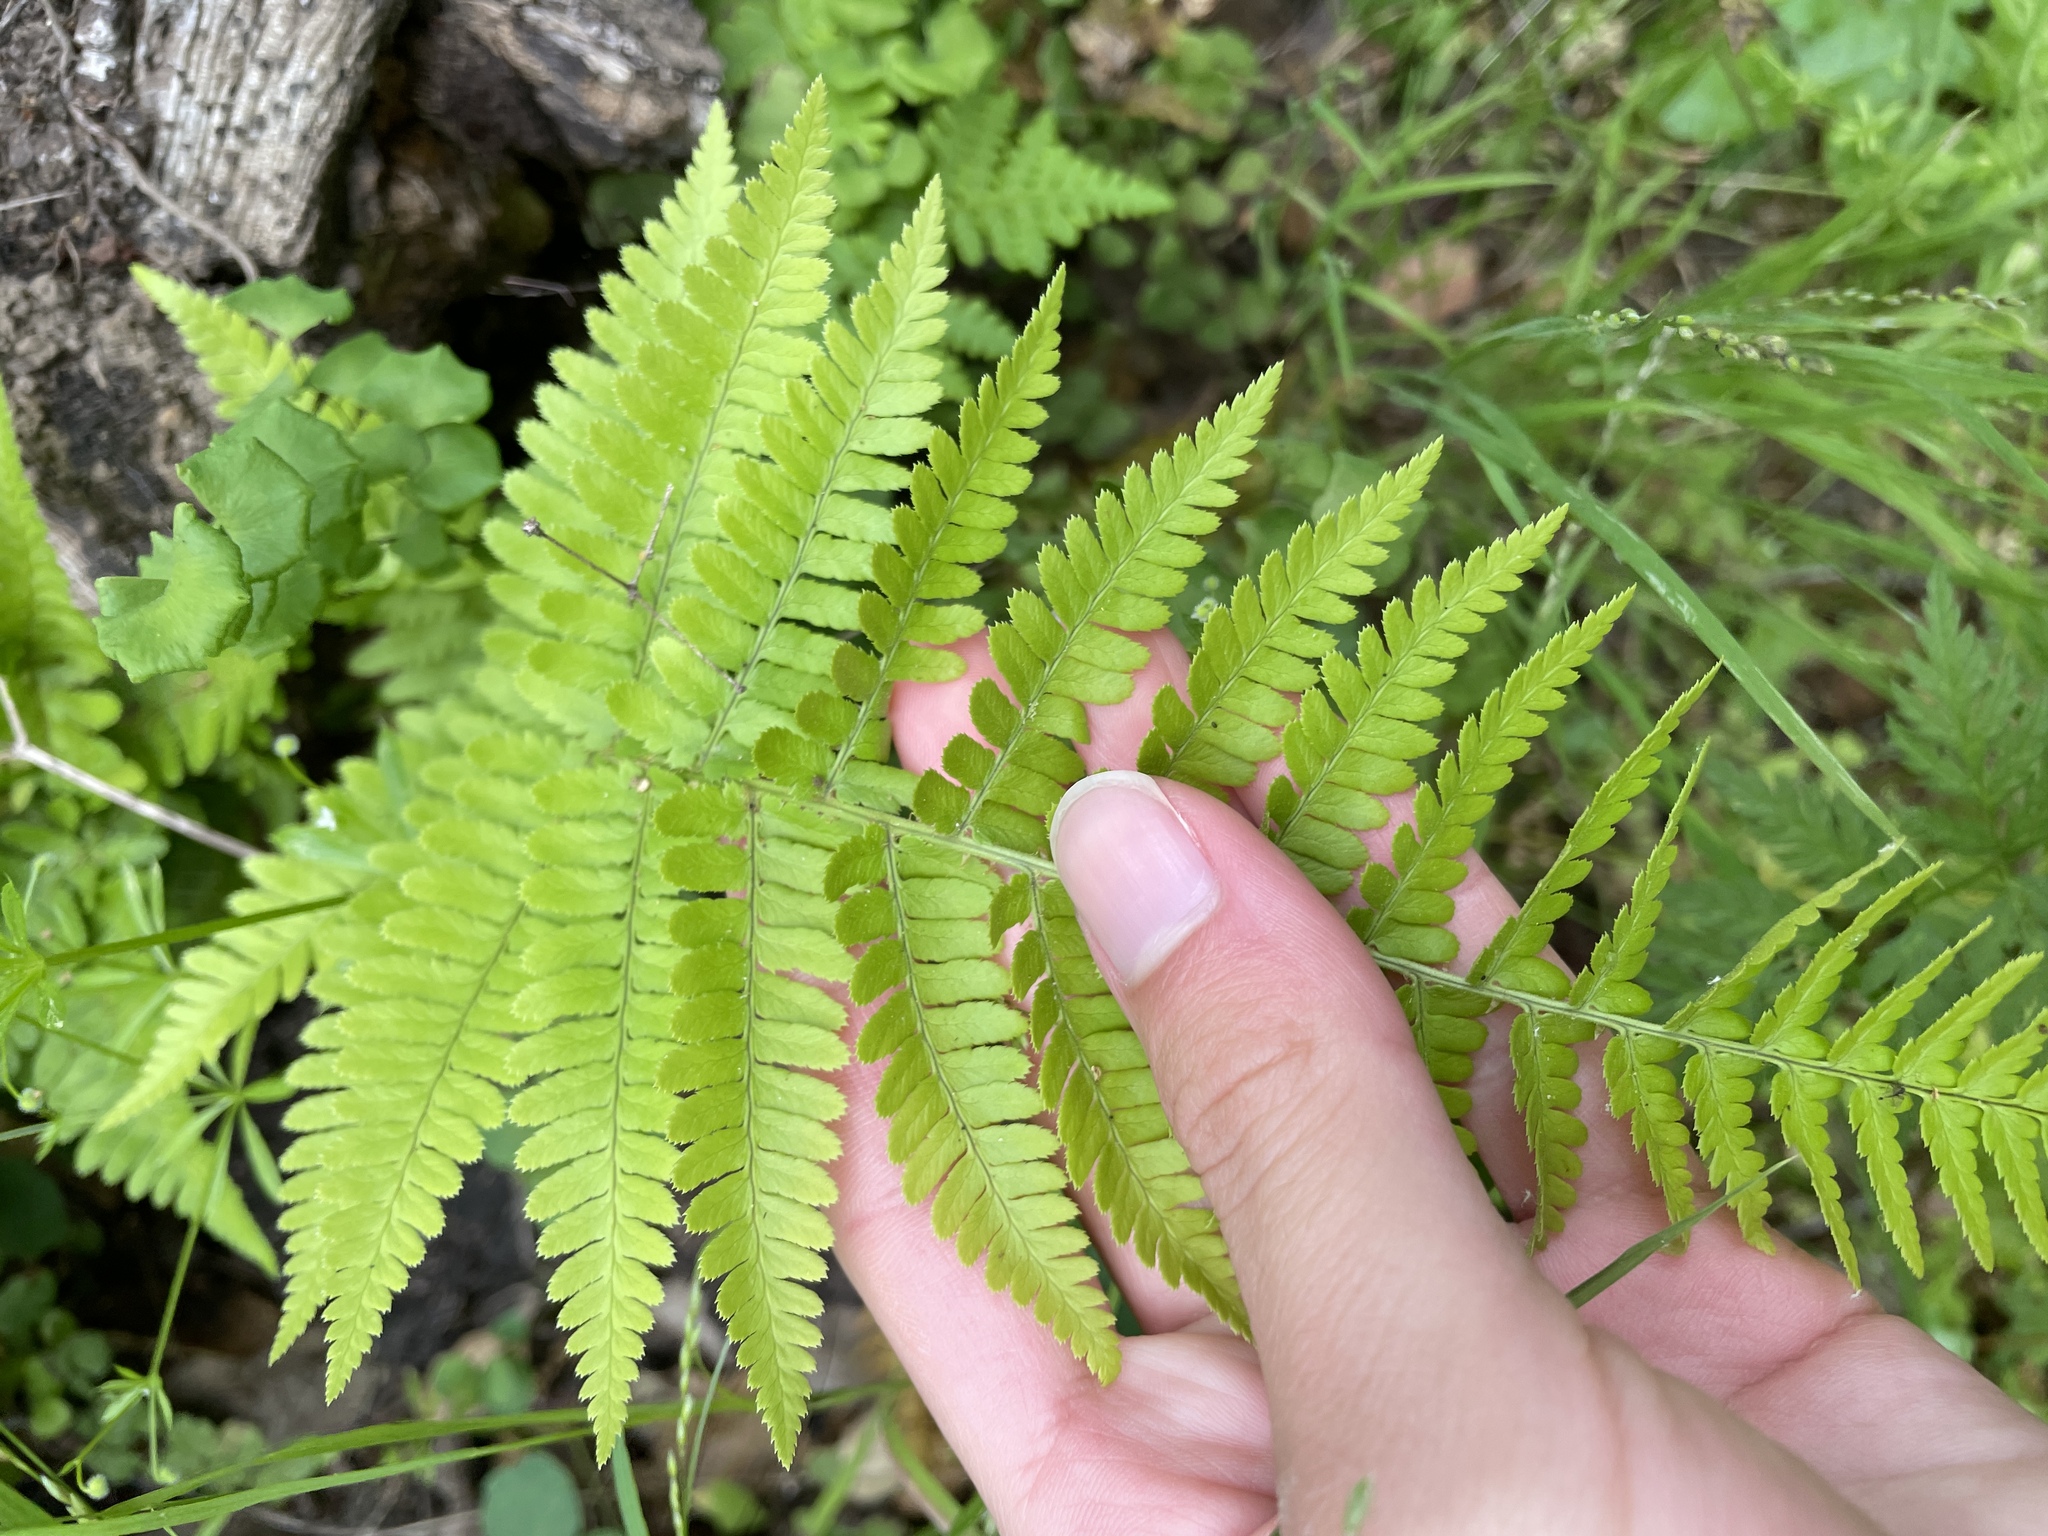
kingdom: Plantae
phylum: Tracheophyta
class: Polypodiopsida
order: Polypodiales
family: Dryopteridaceae
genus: Dryopteris
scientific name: Dryopteris arguta
